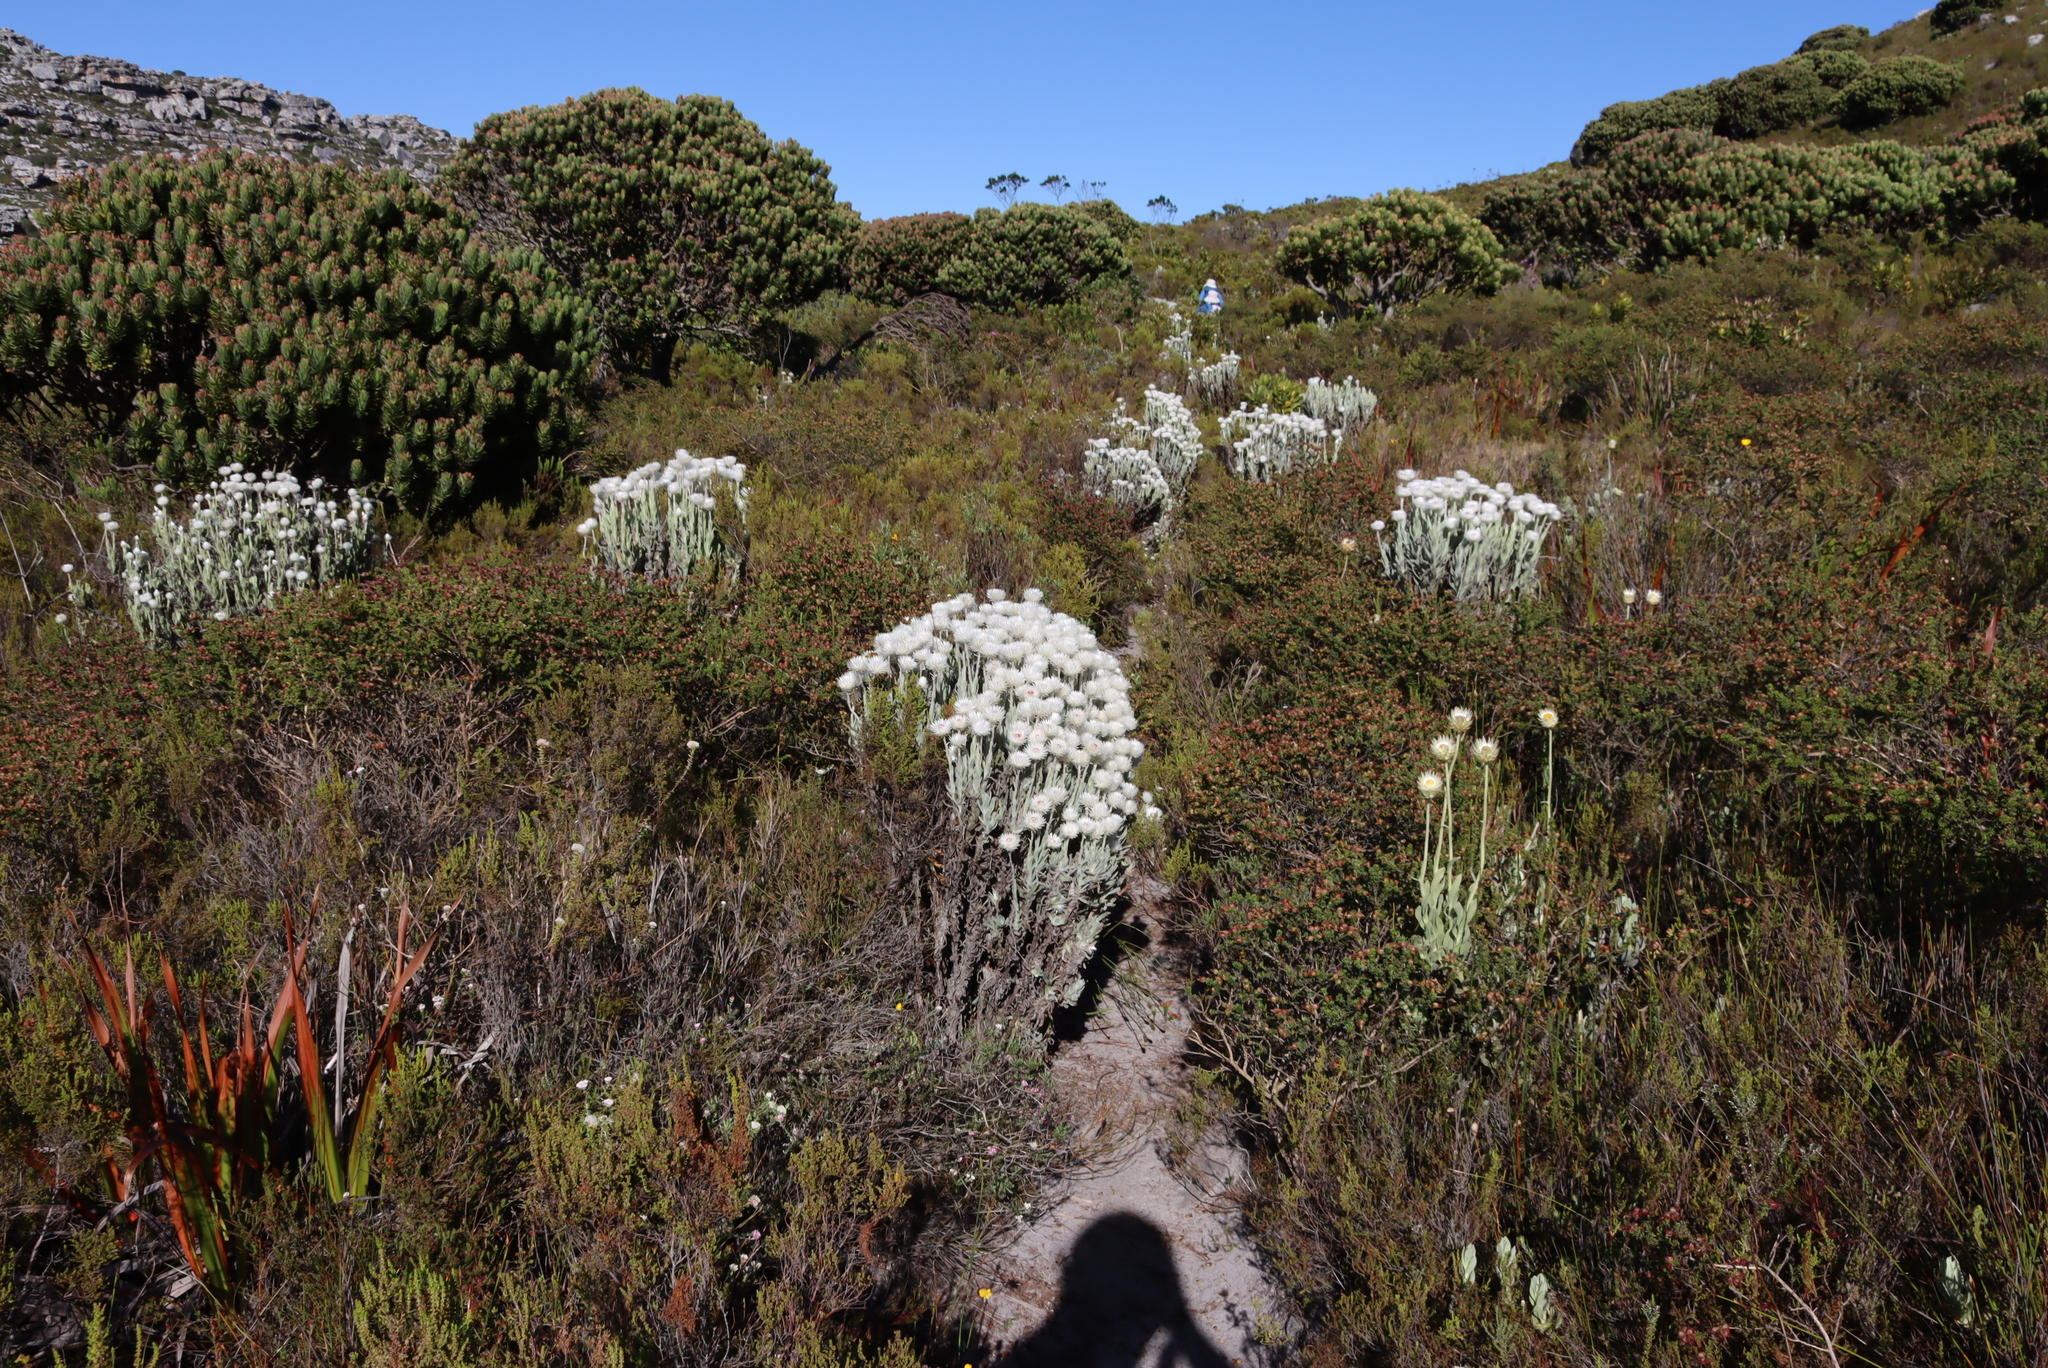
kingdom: Plantae
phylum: Tracheophyta
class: Magnoliopsida
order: Asterales
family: Asteraceae
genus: Syncarpha
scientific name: Syncarpha vestita
